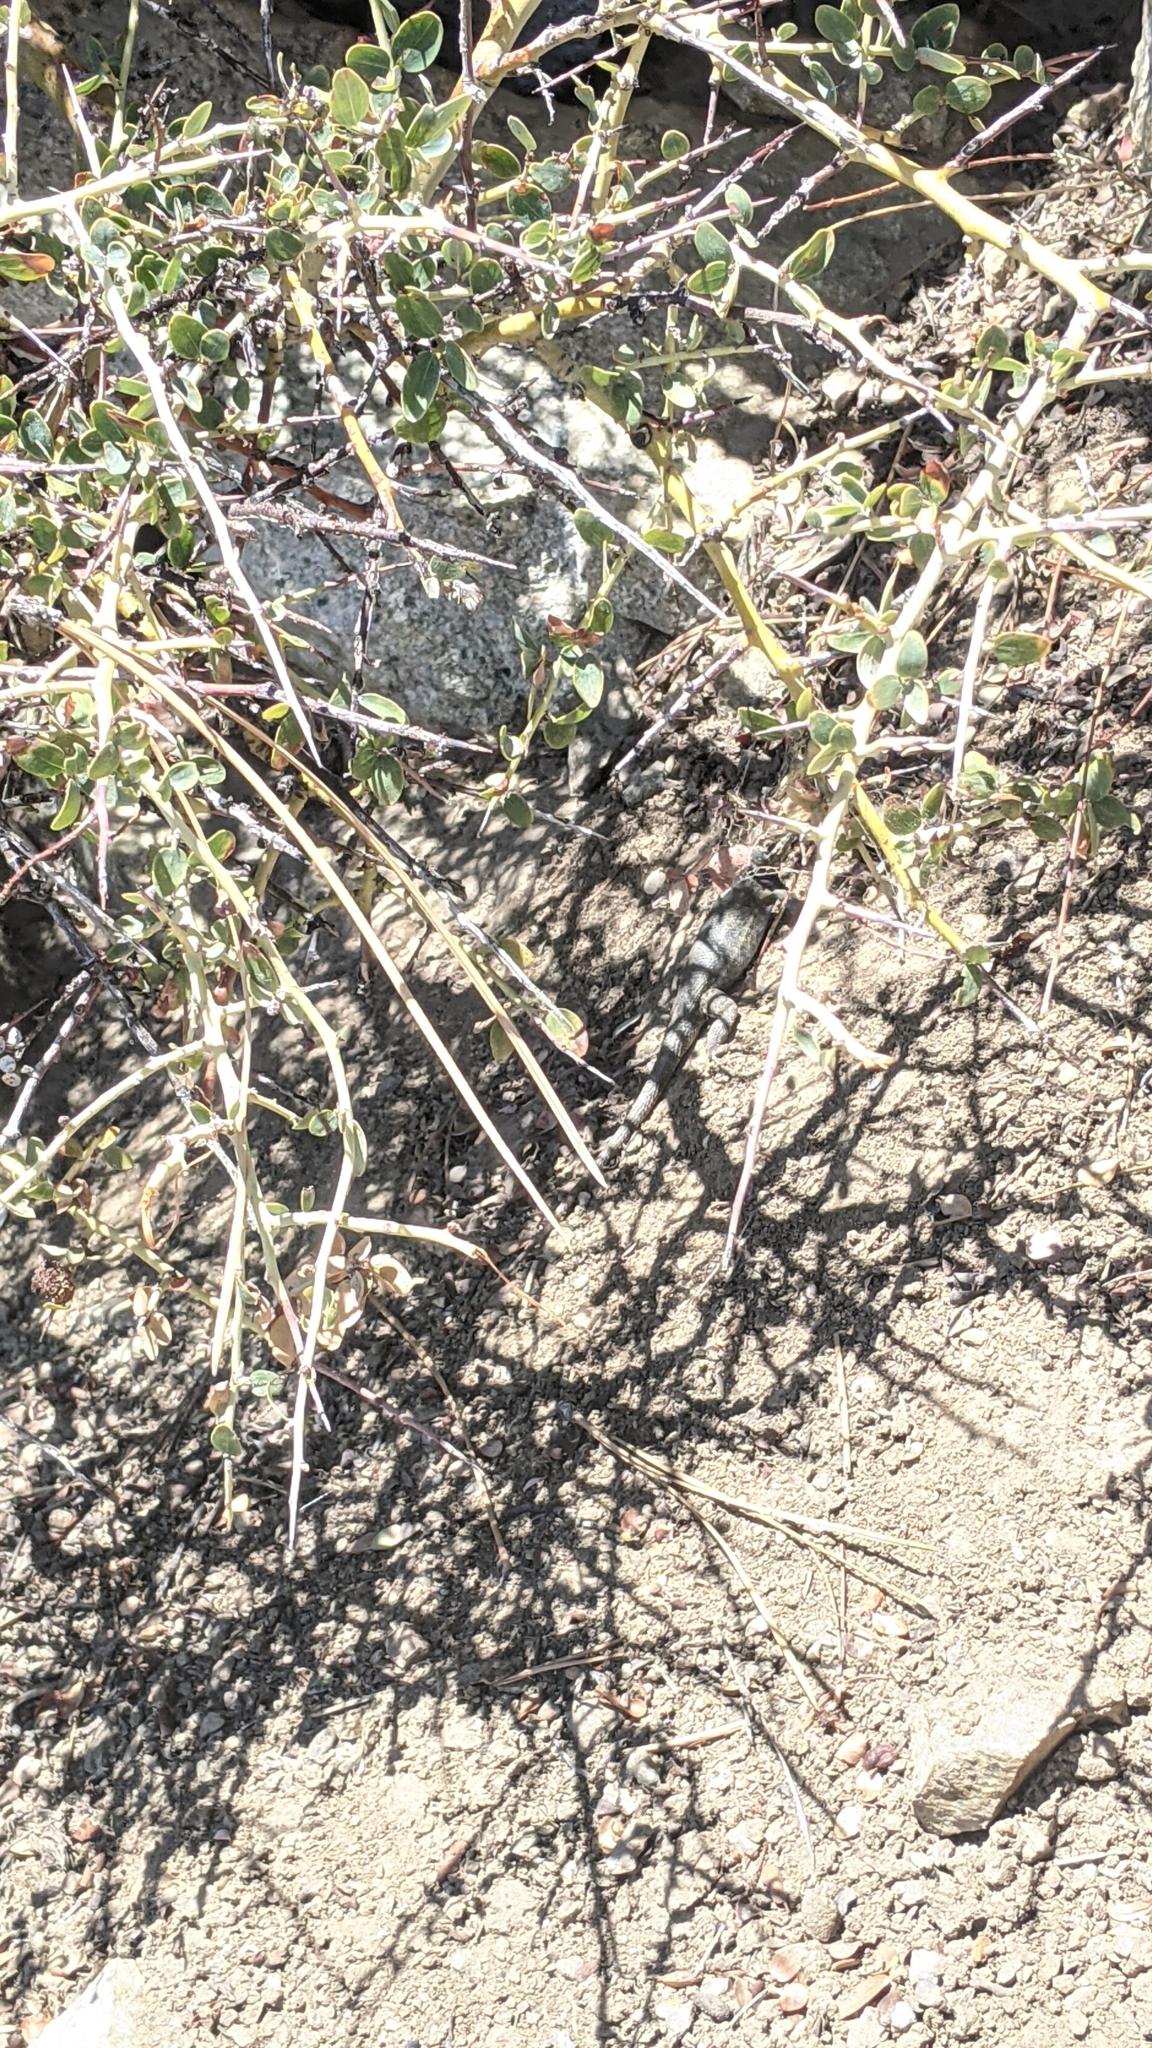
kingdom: Animalia
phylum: Chordata
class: Squamata
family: Phrynosomatidae
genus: Sceloporus
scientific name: Sceloporus graciosus
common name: Sagebrush lizard
